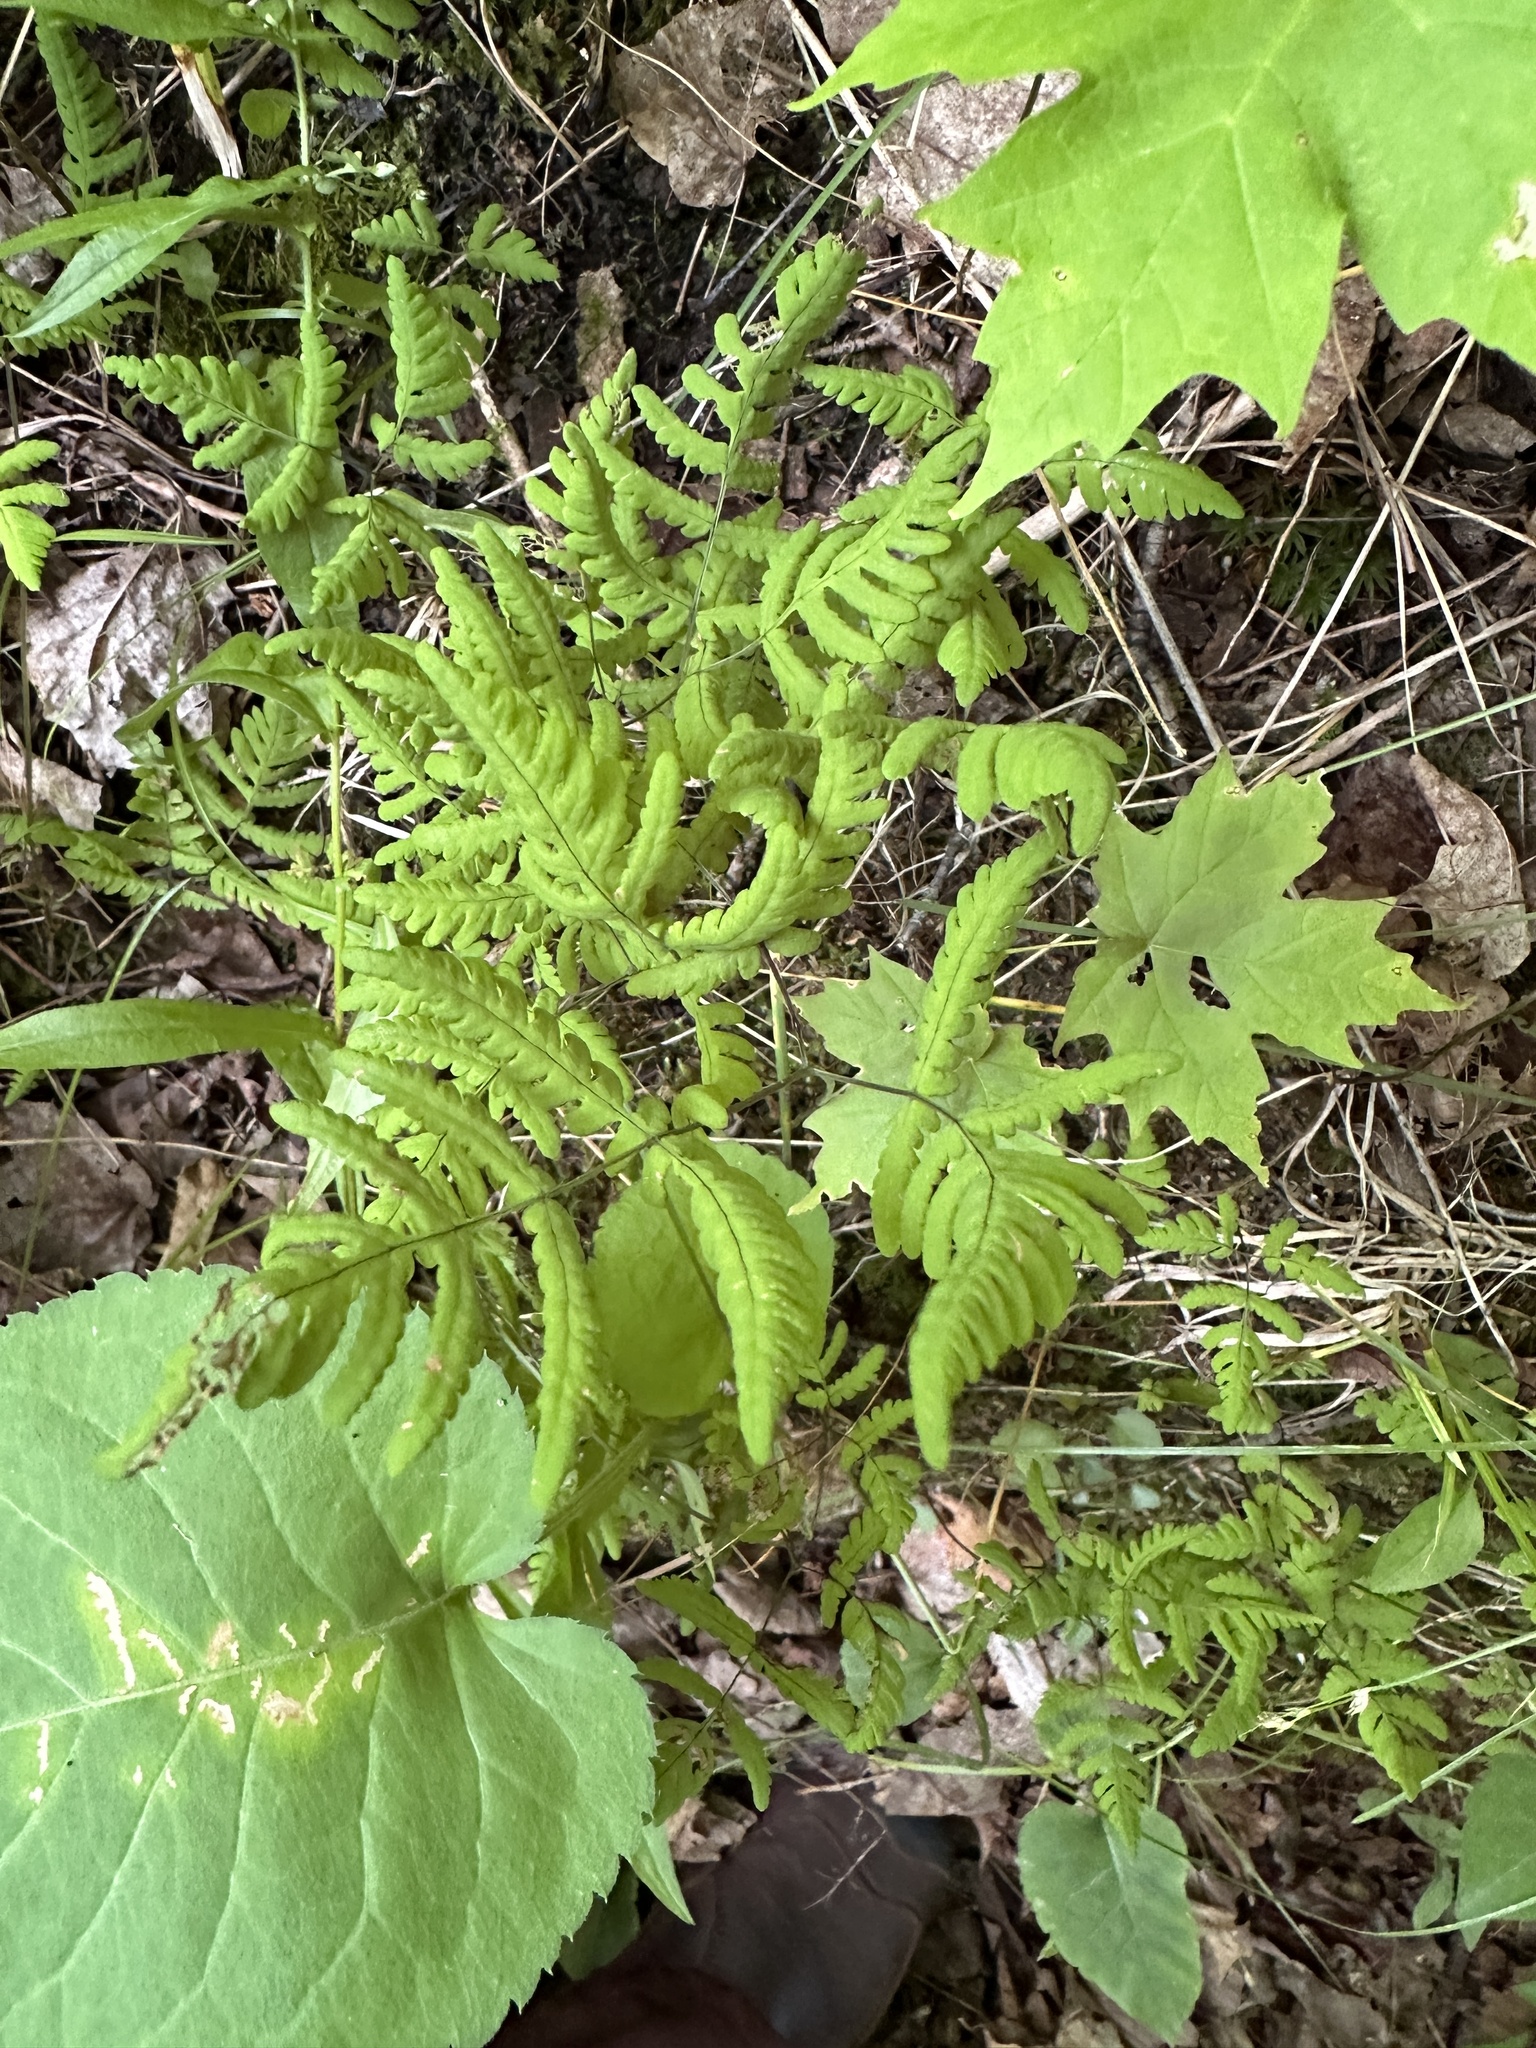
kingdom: Plantae
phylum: Tracheophyta
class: Polypodiopsida
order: Polypodiales
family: Cystopteridaceae
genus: Gymnocarpium
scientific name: Gymnocarpium dryopteris
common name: Oak fern
